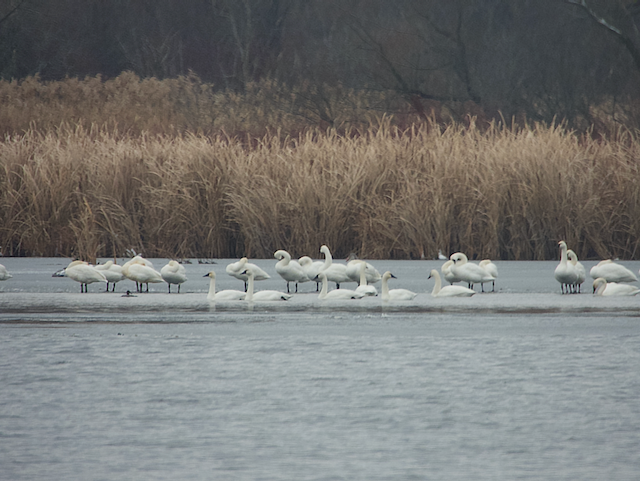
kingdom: Animalia
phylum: Chordata
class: Aves
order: Anseriformes
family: Anatidae
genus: Cygnus
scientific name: Cygnus columbianus
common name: Tundra swan
